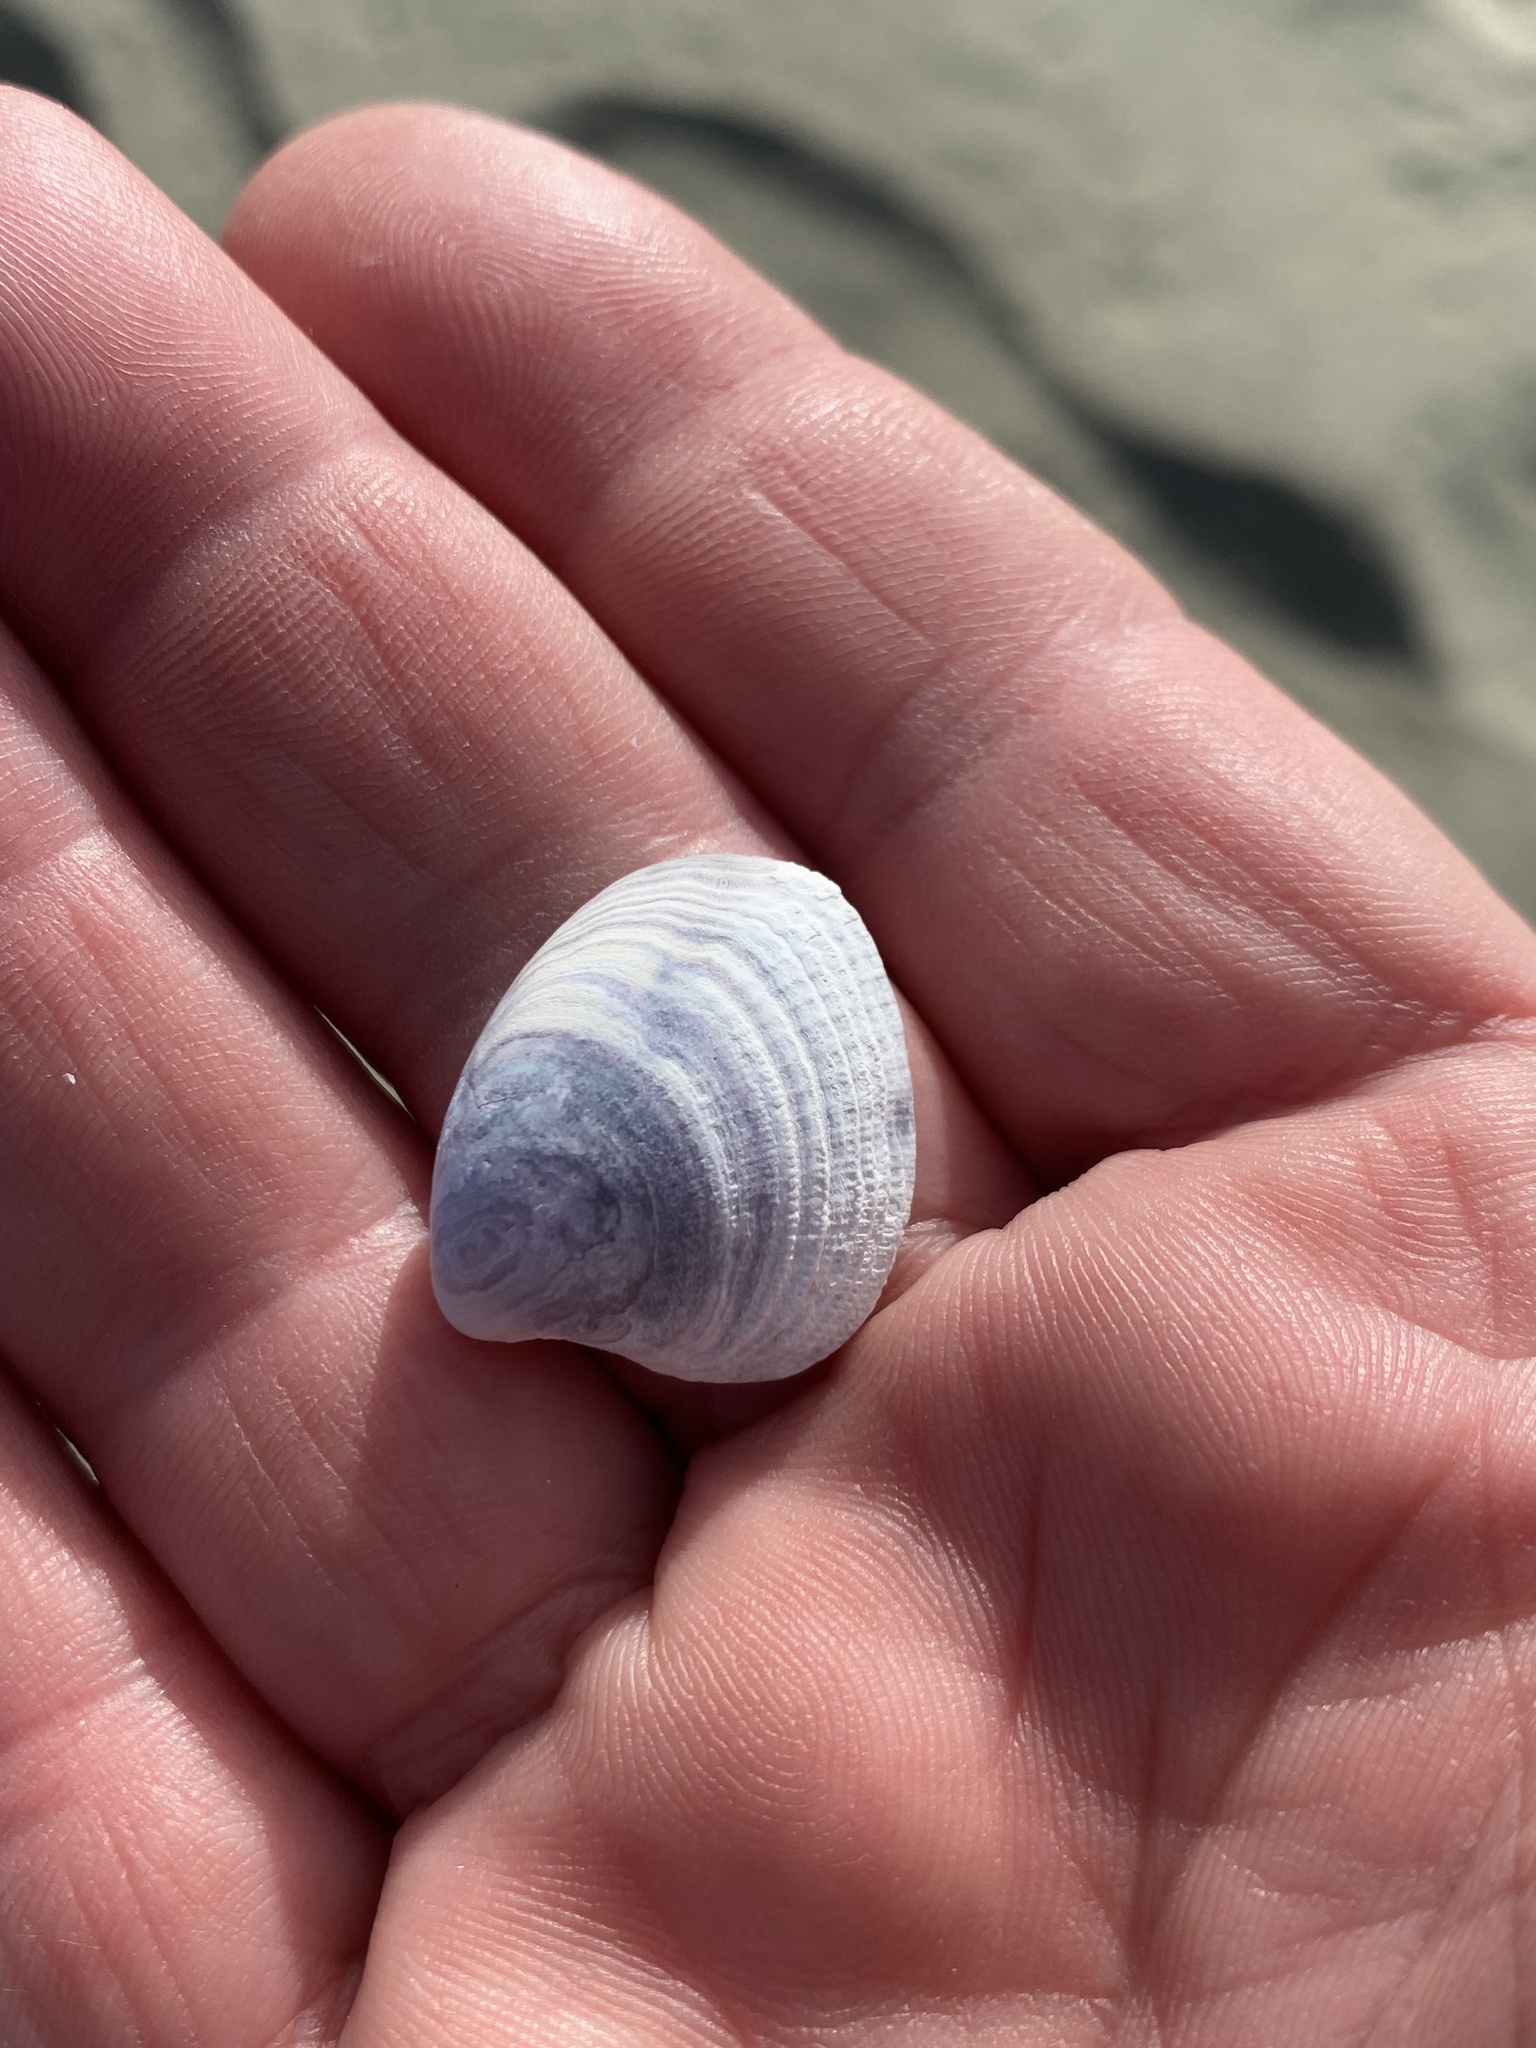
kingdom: Animalia
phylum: Mollusca
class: Bivalvia
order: Venerida
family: Veneridae
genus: Austrovenus
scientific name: Austrovenus stutchburyi
